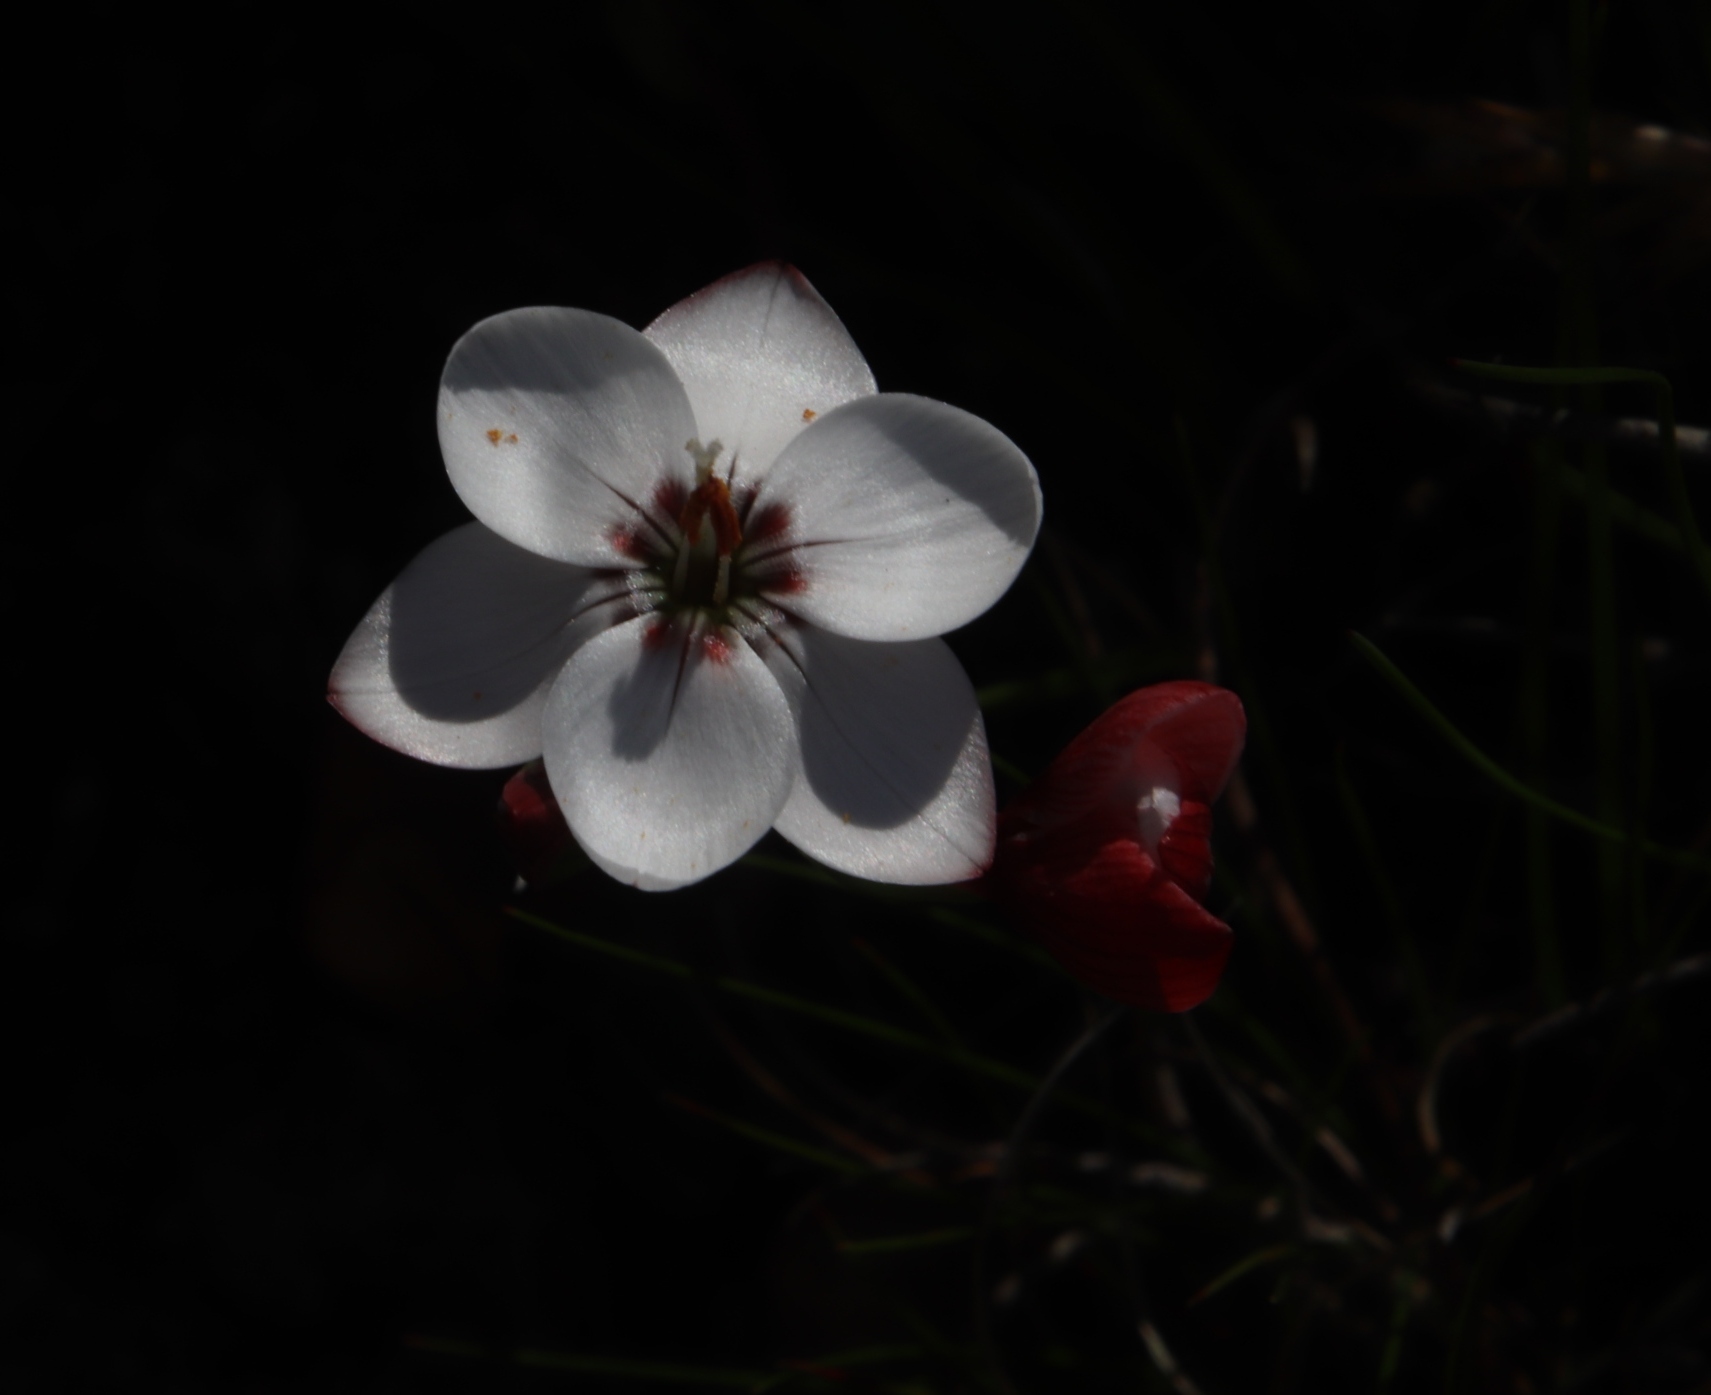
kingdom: Plantae
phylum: Tracheophyta
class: Liliopsida
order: Asparagales
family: Iridaceae
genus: Geissorhiza
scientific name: Geissorhiza ovata
